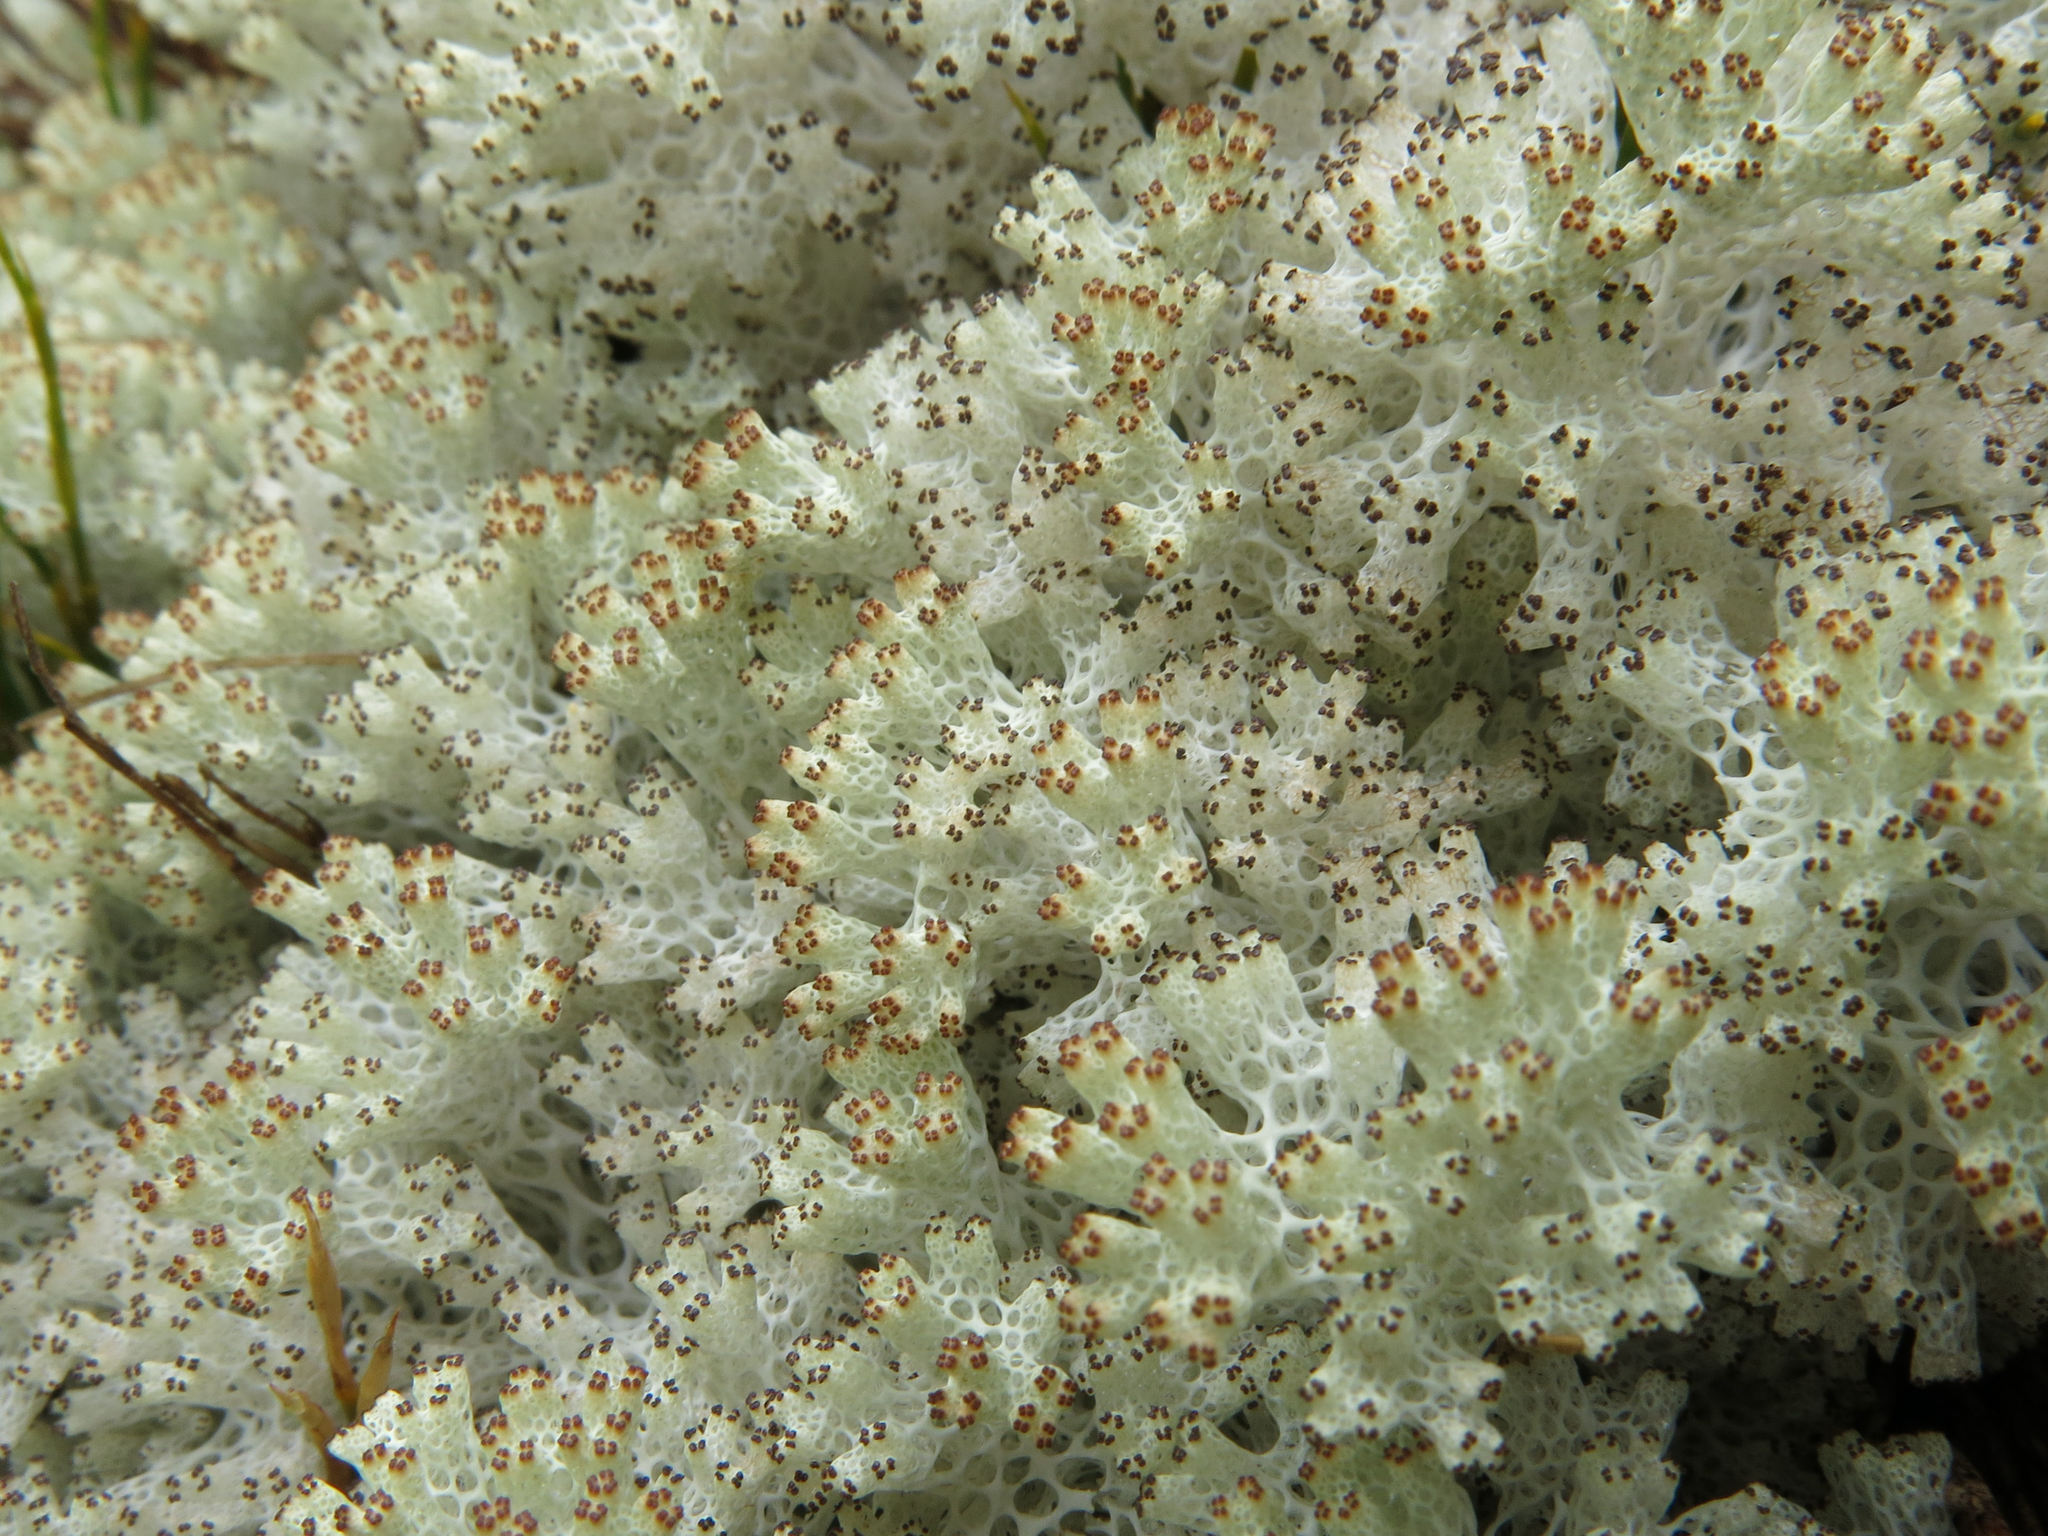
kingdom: Fungi
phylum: Ascomycota
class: Lecanoromycetes
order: Lecanorales
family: Cladoniaceae
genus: Pulchrocladia
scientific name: Pulchrocladia retipora
